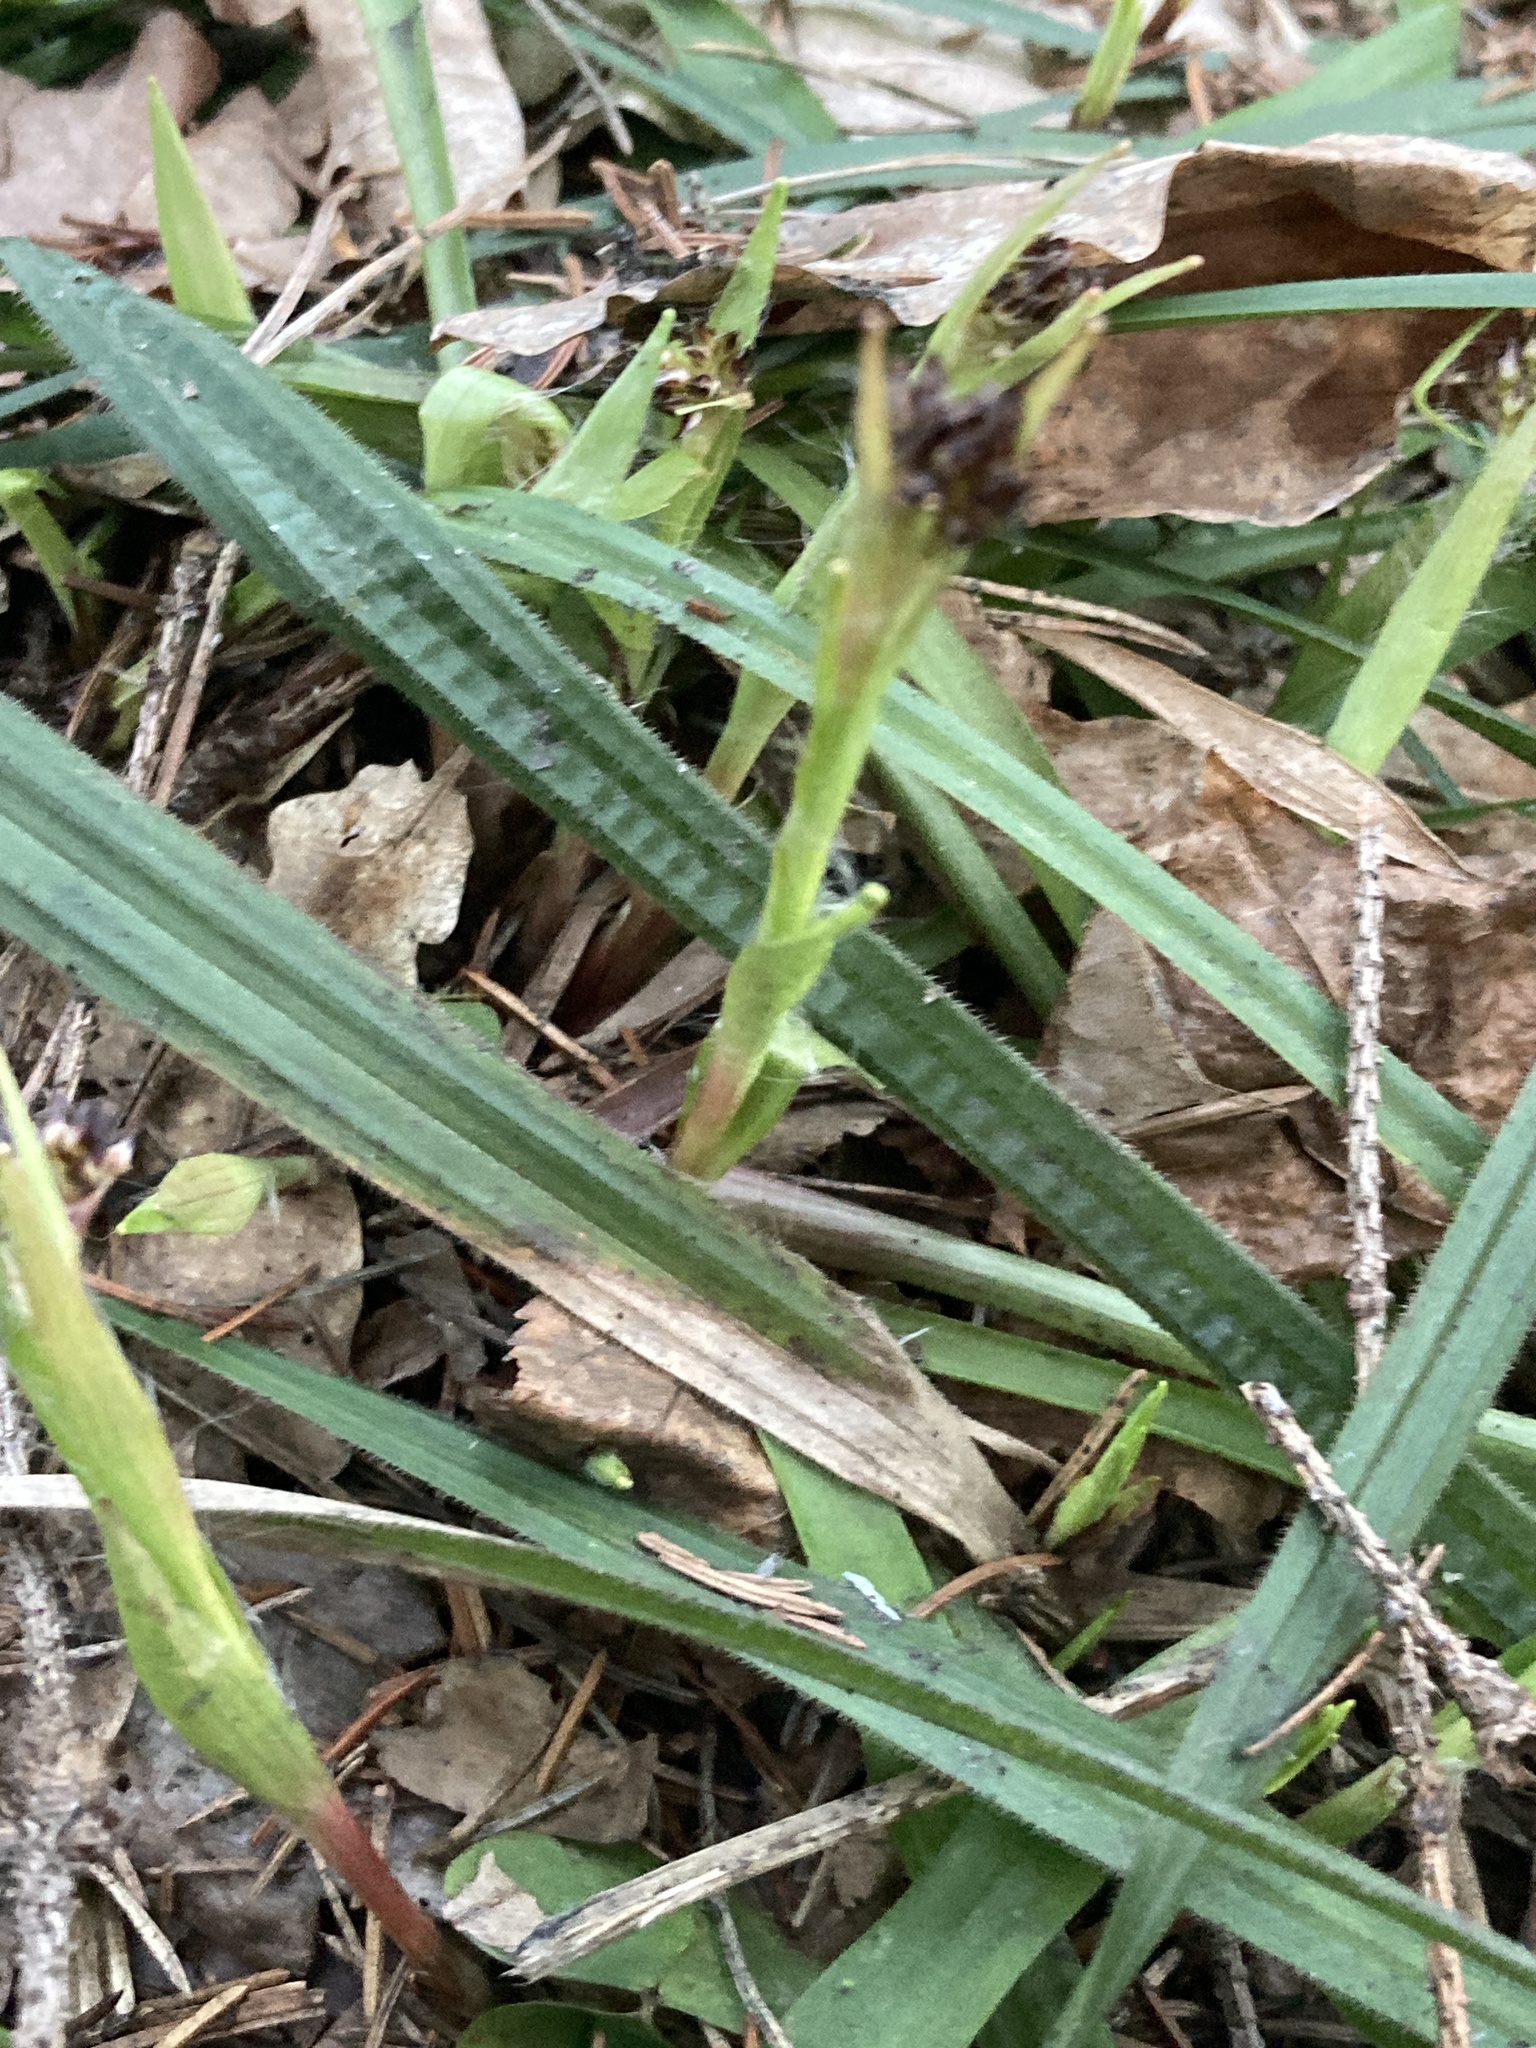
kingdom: Plantae
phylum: Tracheophyta
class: Liliopsida
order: Poales
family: Cyperaceae
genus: Carex
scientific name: Carex pilosa
